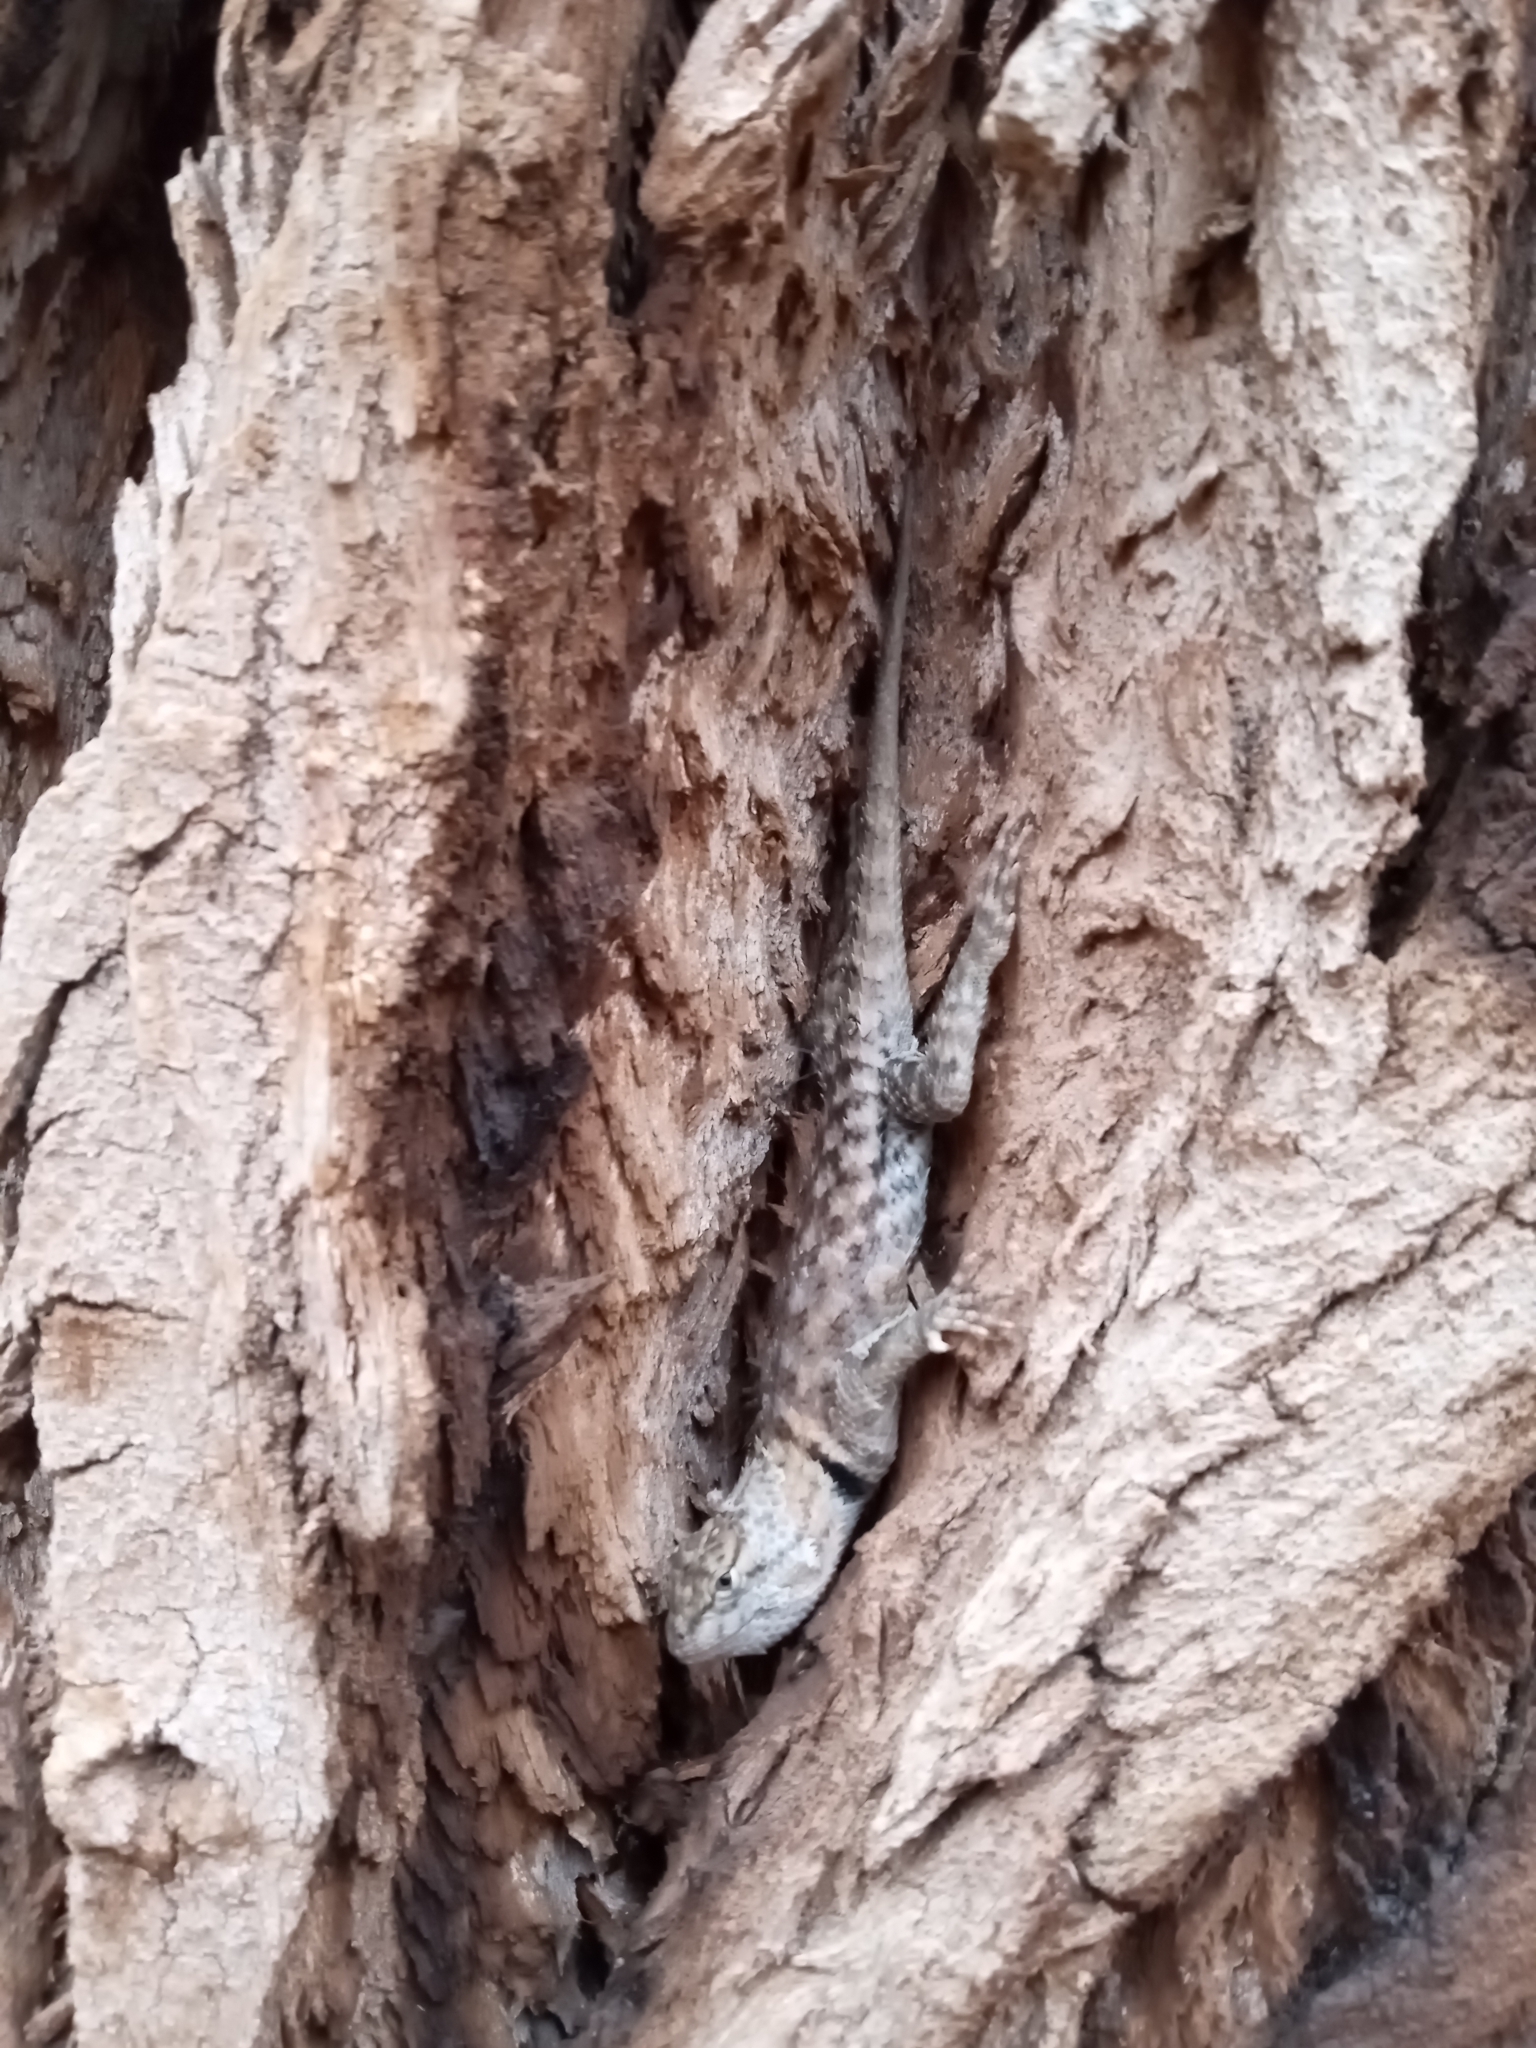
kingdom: Animalia
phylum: Chordata
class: Squamata
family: Phrynosomatidae
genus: Sceloporus
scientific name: Sceloporus magister
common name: Desert spiny lizard
